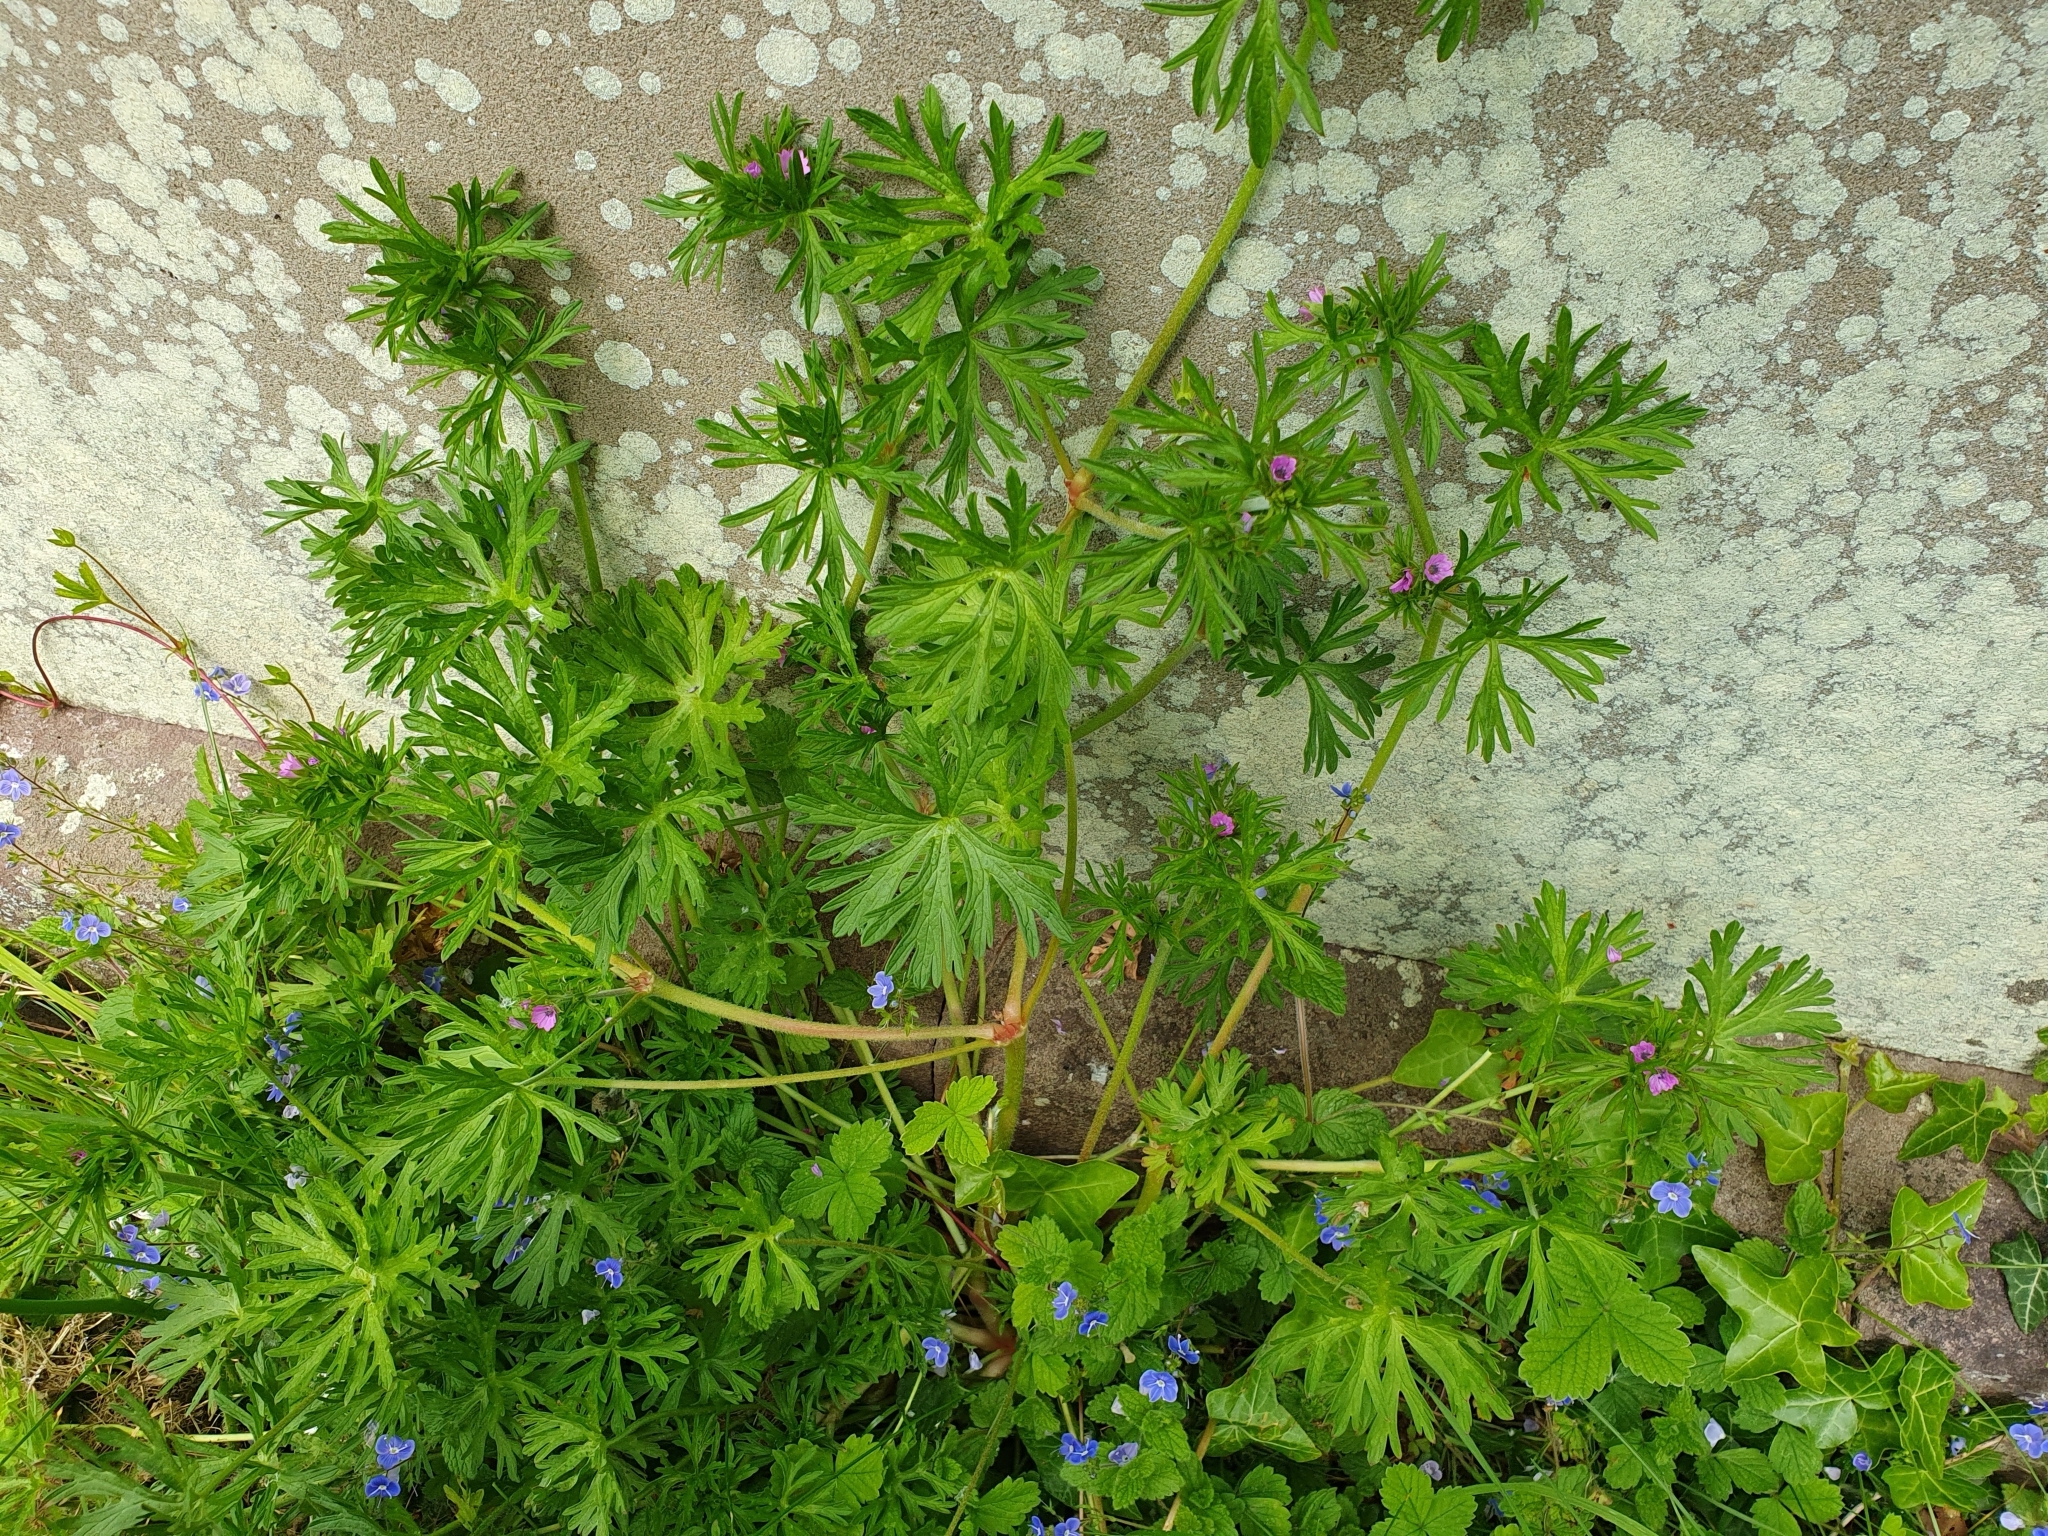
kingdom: Plantae
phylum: Tracheophyta
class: Magnoliopsida
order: Geraniales
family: Geraniaceae
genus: Geranium
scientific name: Geranium dissectum
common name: Cut-leaved crane's-bill
